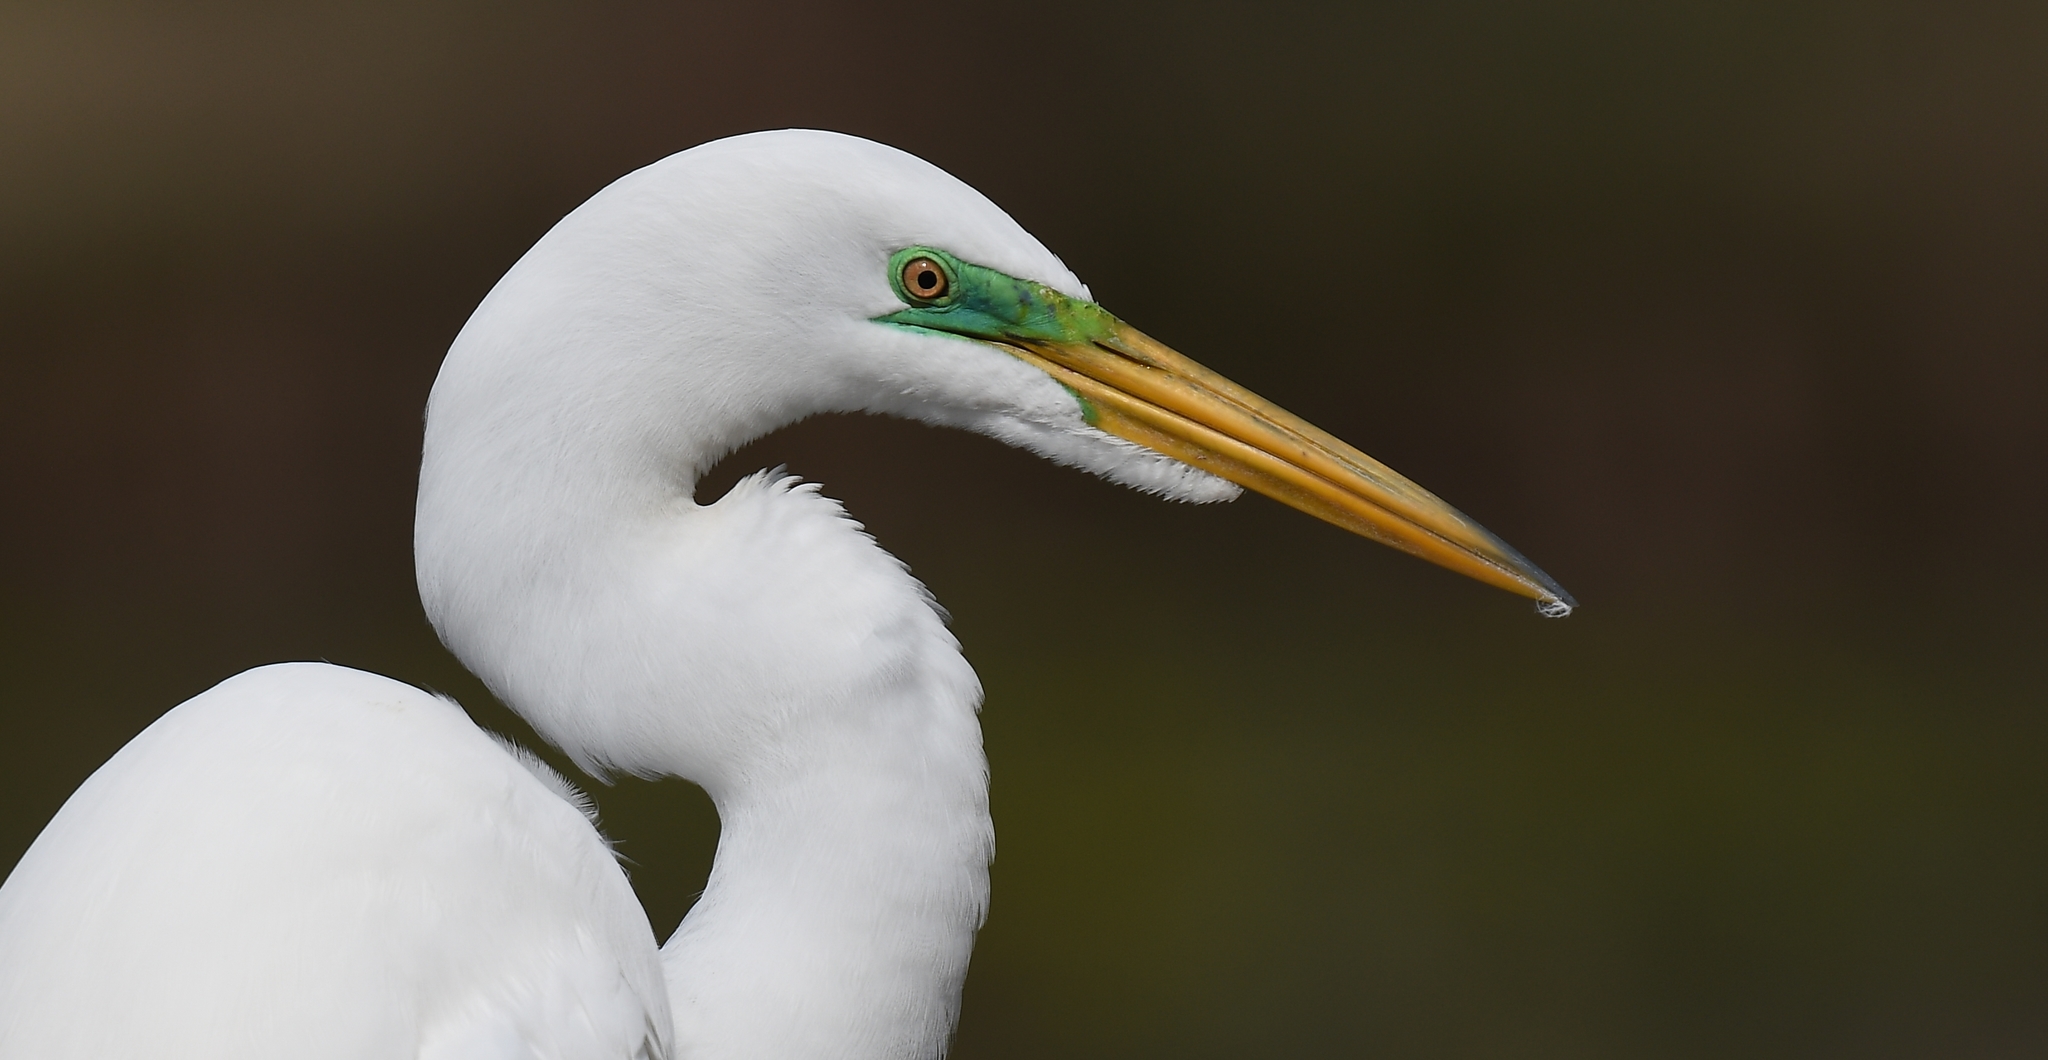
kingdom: Animalia
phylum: Chordata
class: Aves
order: Pelecaniformes
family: Ardeidae
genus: Ardea
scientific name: Ardea alba
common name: Great egret
